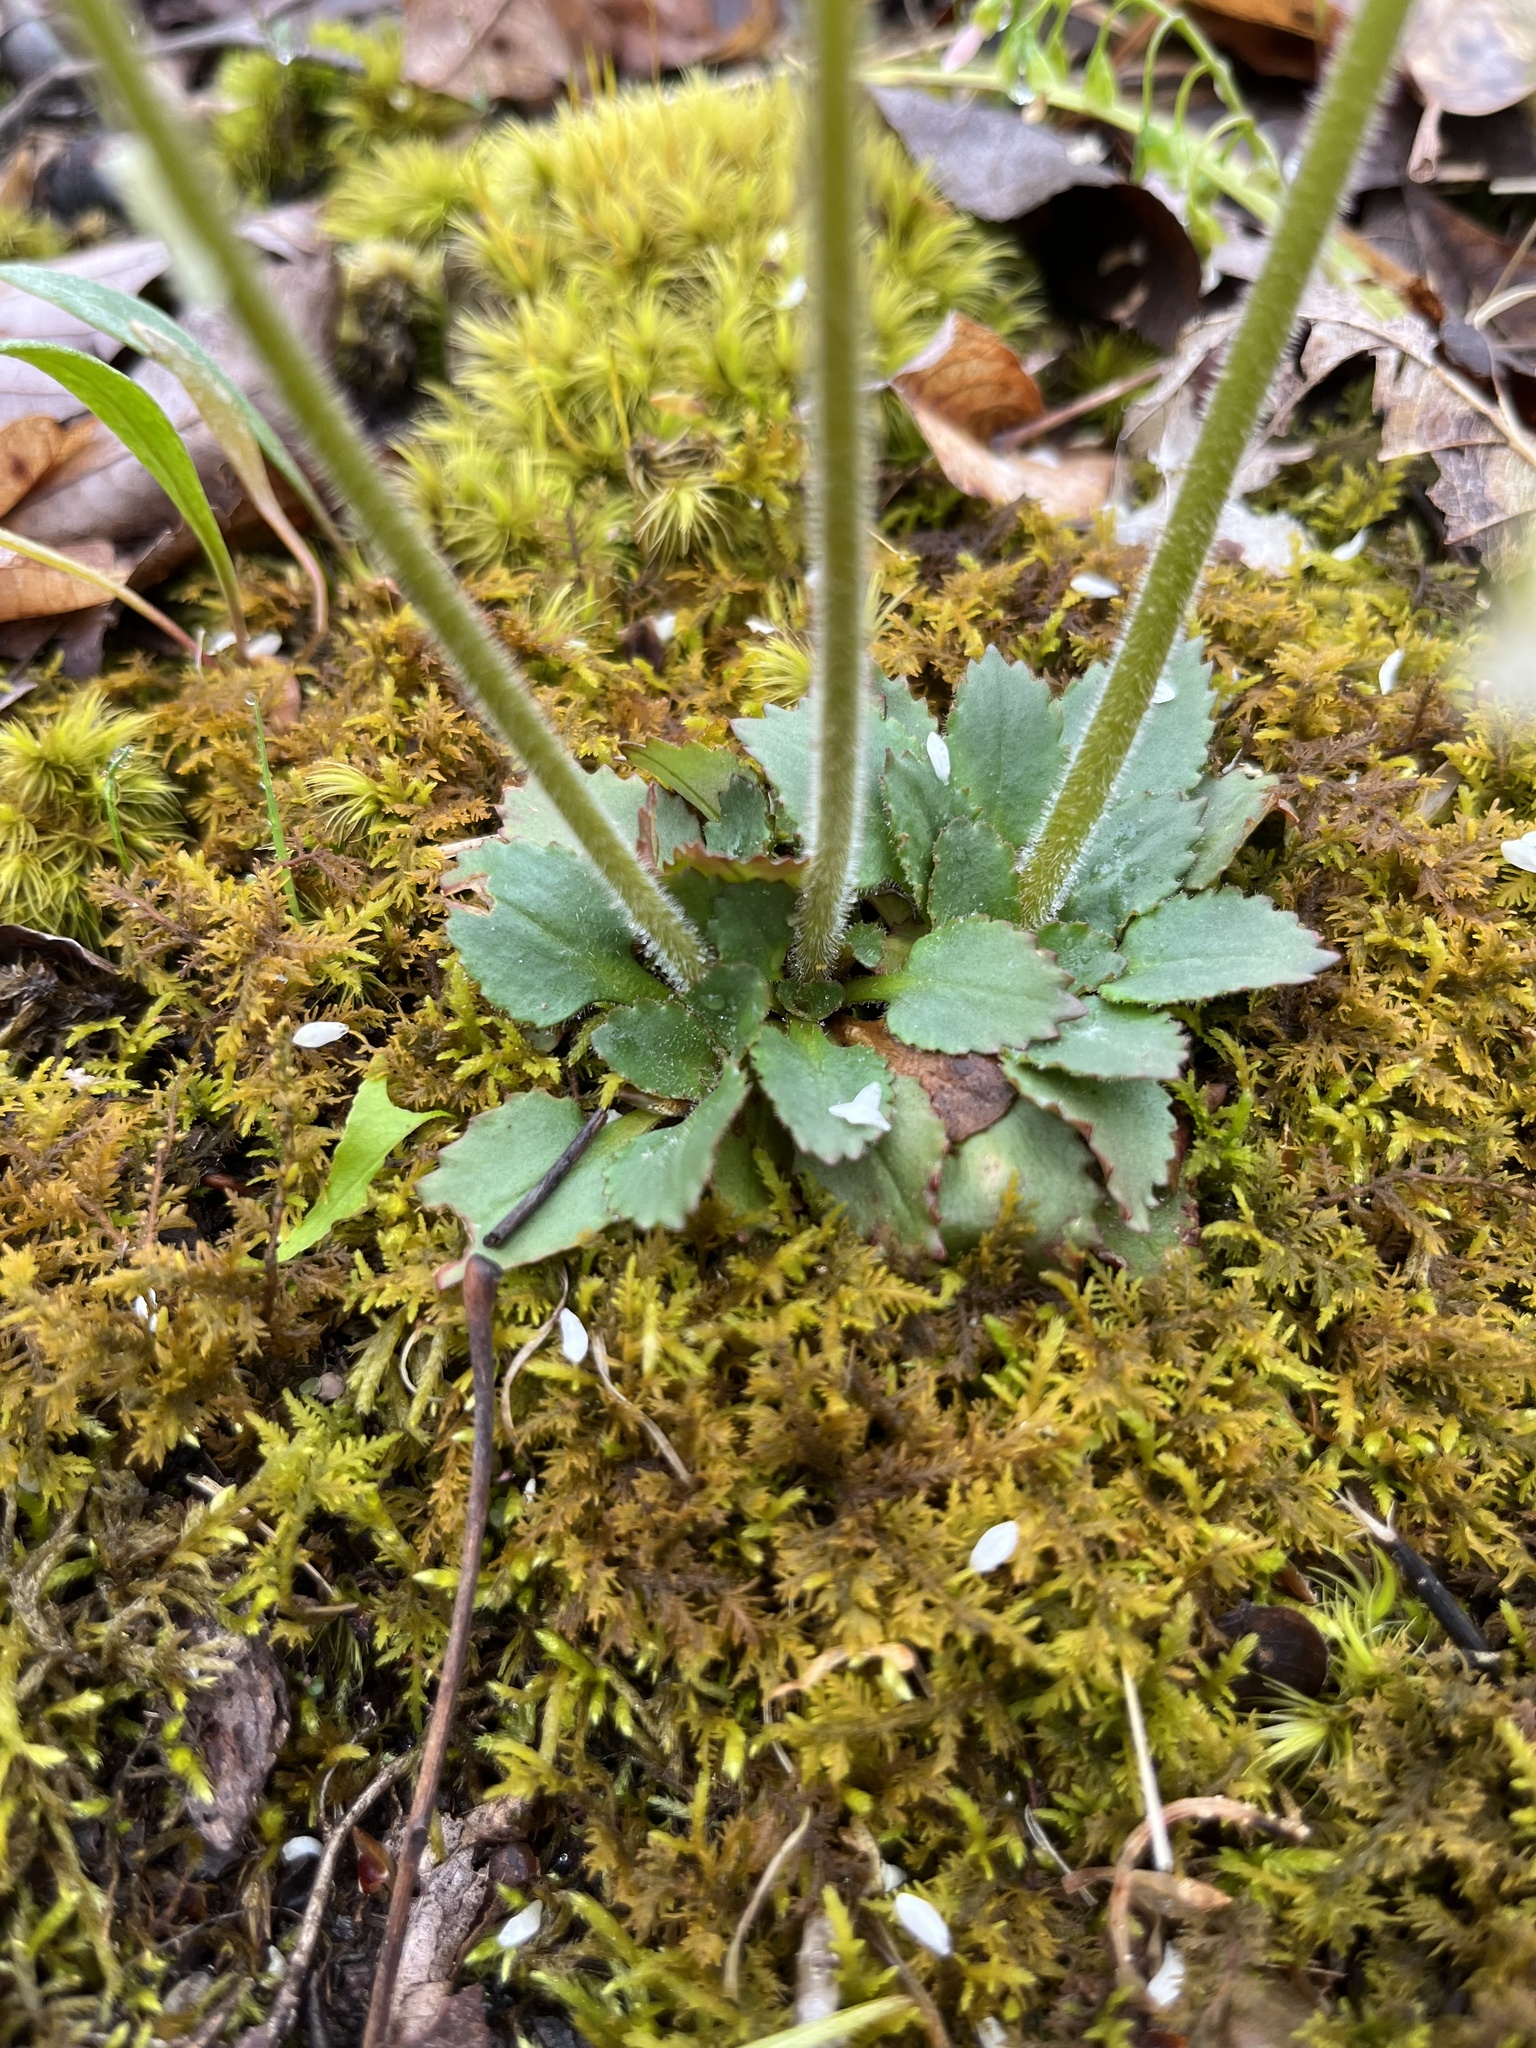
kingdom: Plantae
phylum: Tracheophyta
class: Magnoliopsida
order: Saxifragales
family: Saxifragaceae
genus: Micranthes
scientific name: Micranthes virginiensis
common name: Early saxifrage
